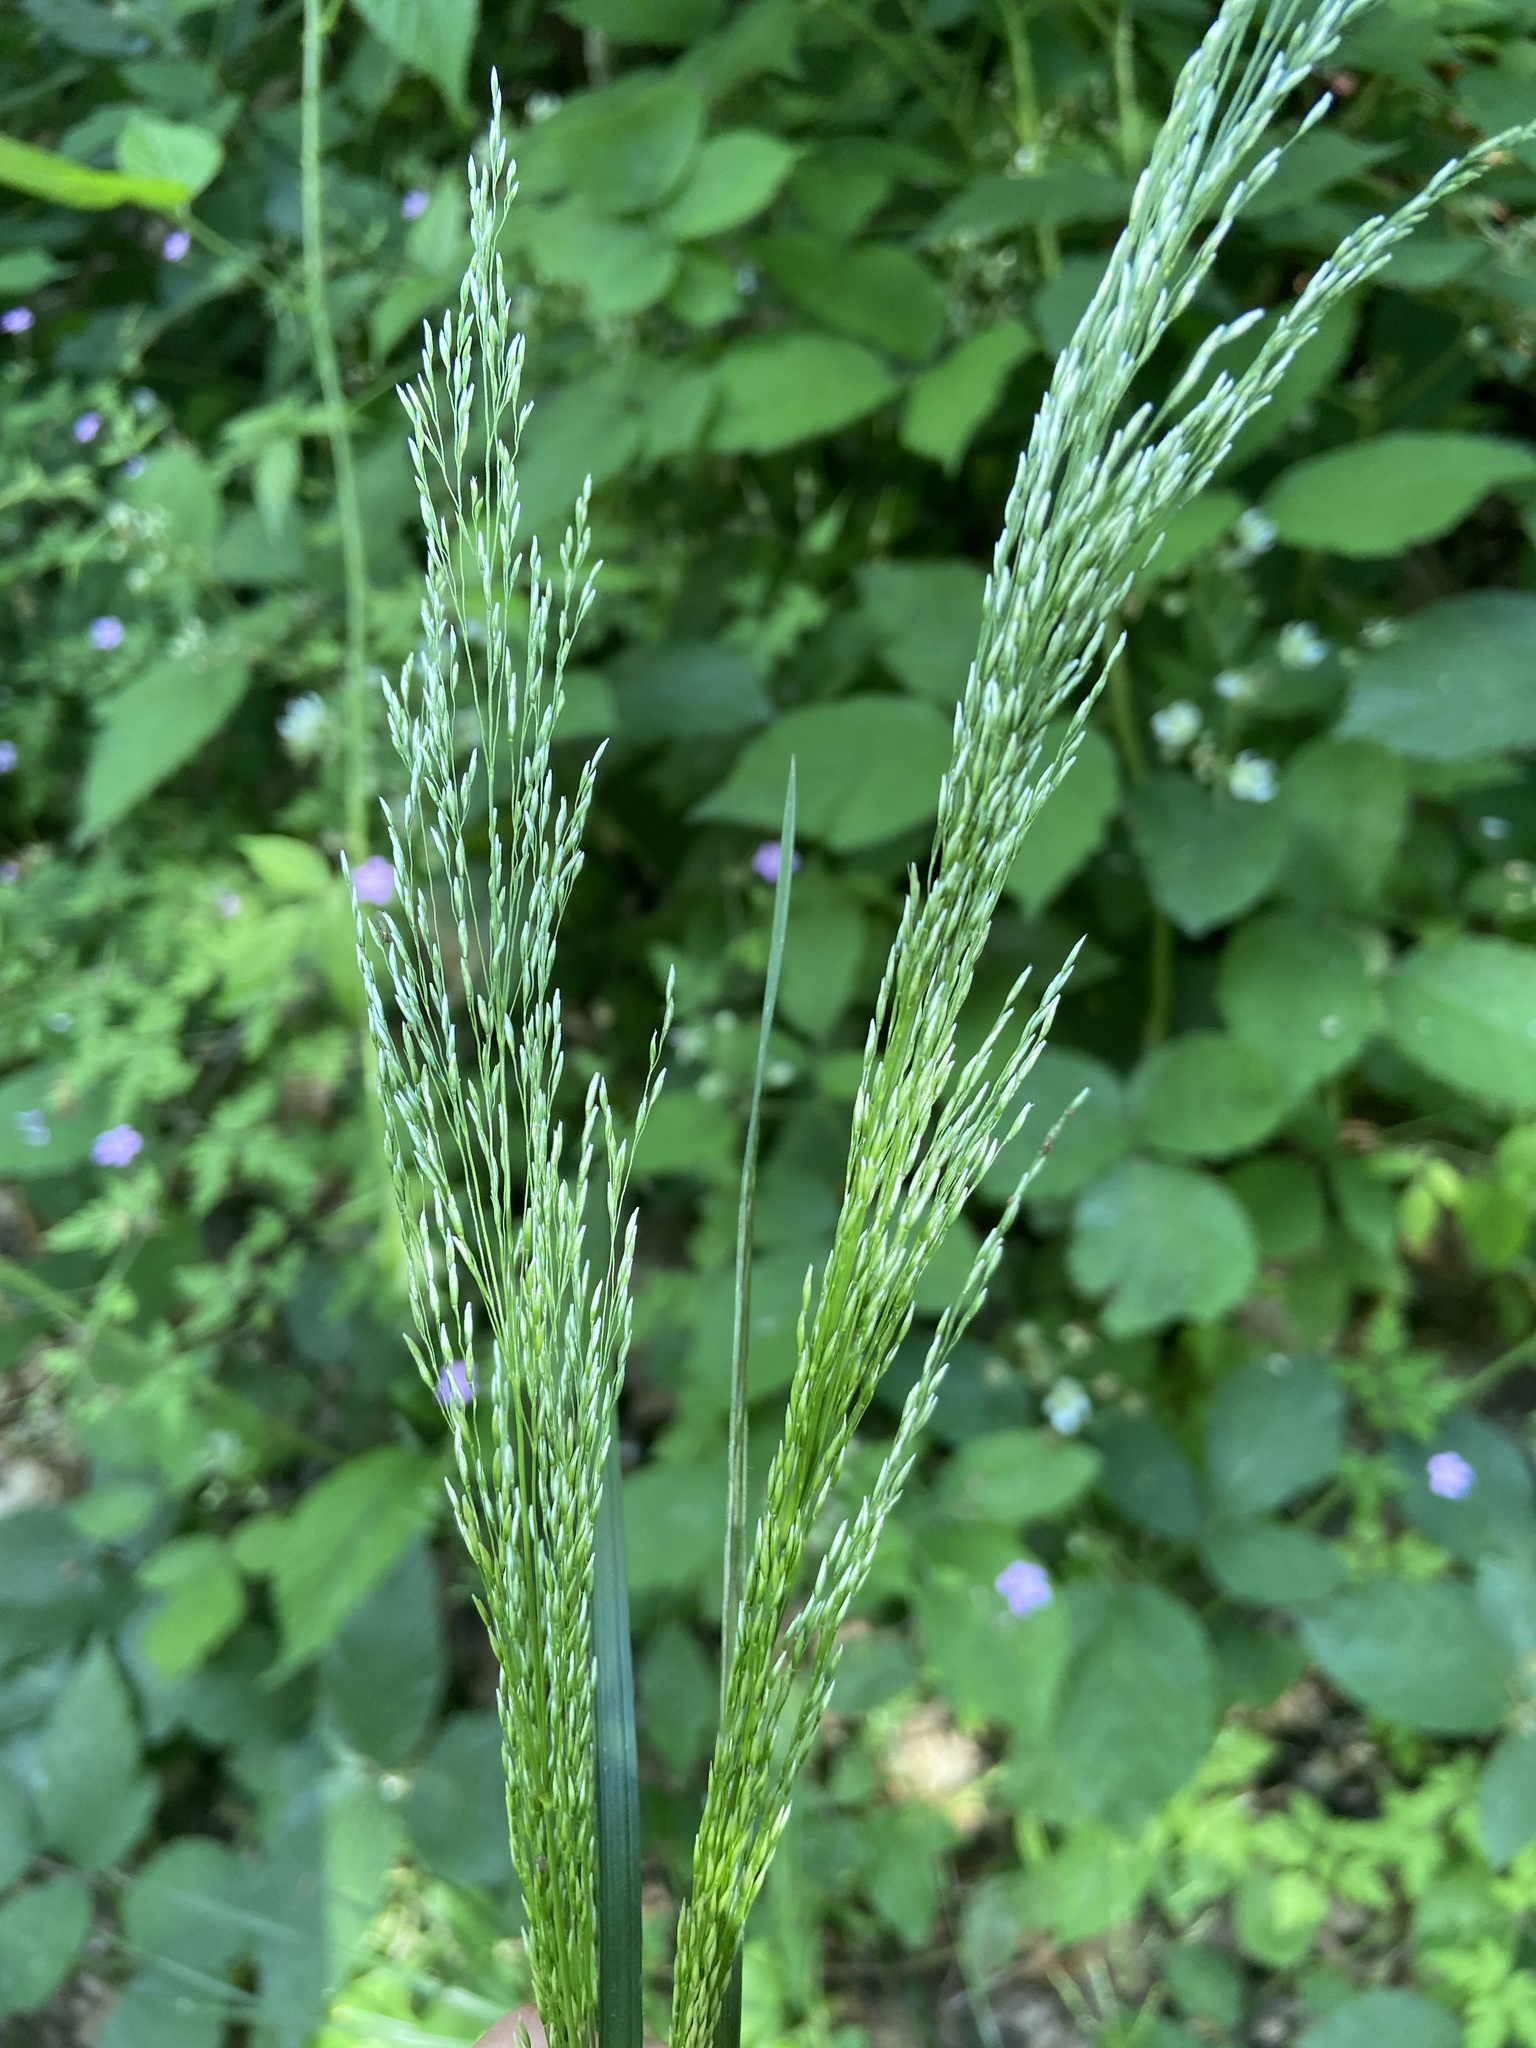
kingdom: Plantae
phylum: Tracheophyta
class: Liliopsida
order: Poales
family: Poaceae
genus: Poa
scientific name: Poa nemoralis
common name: Wood bluegrass
